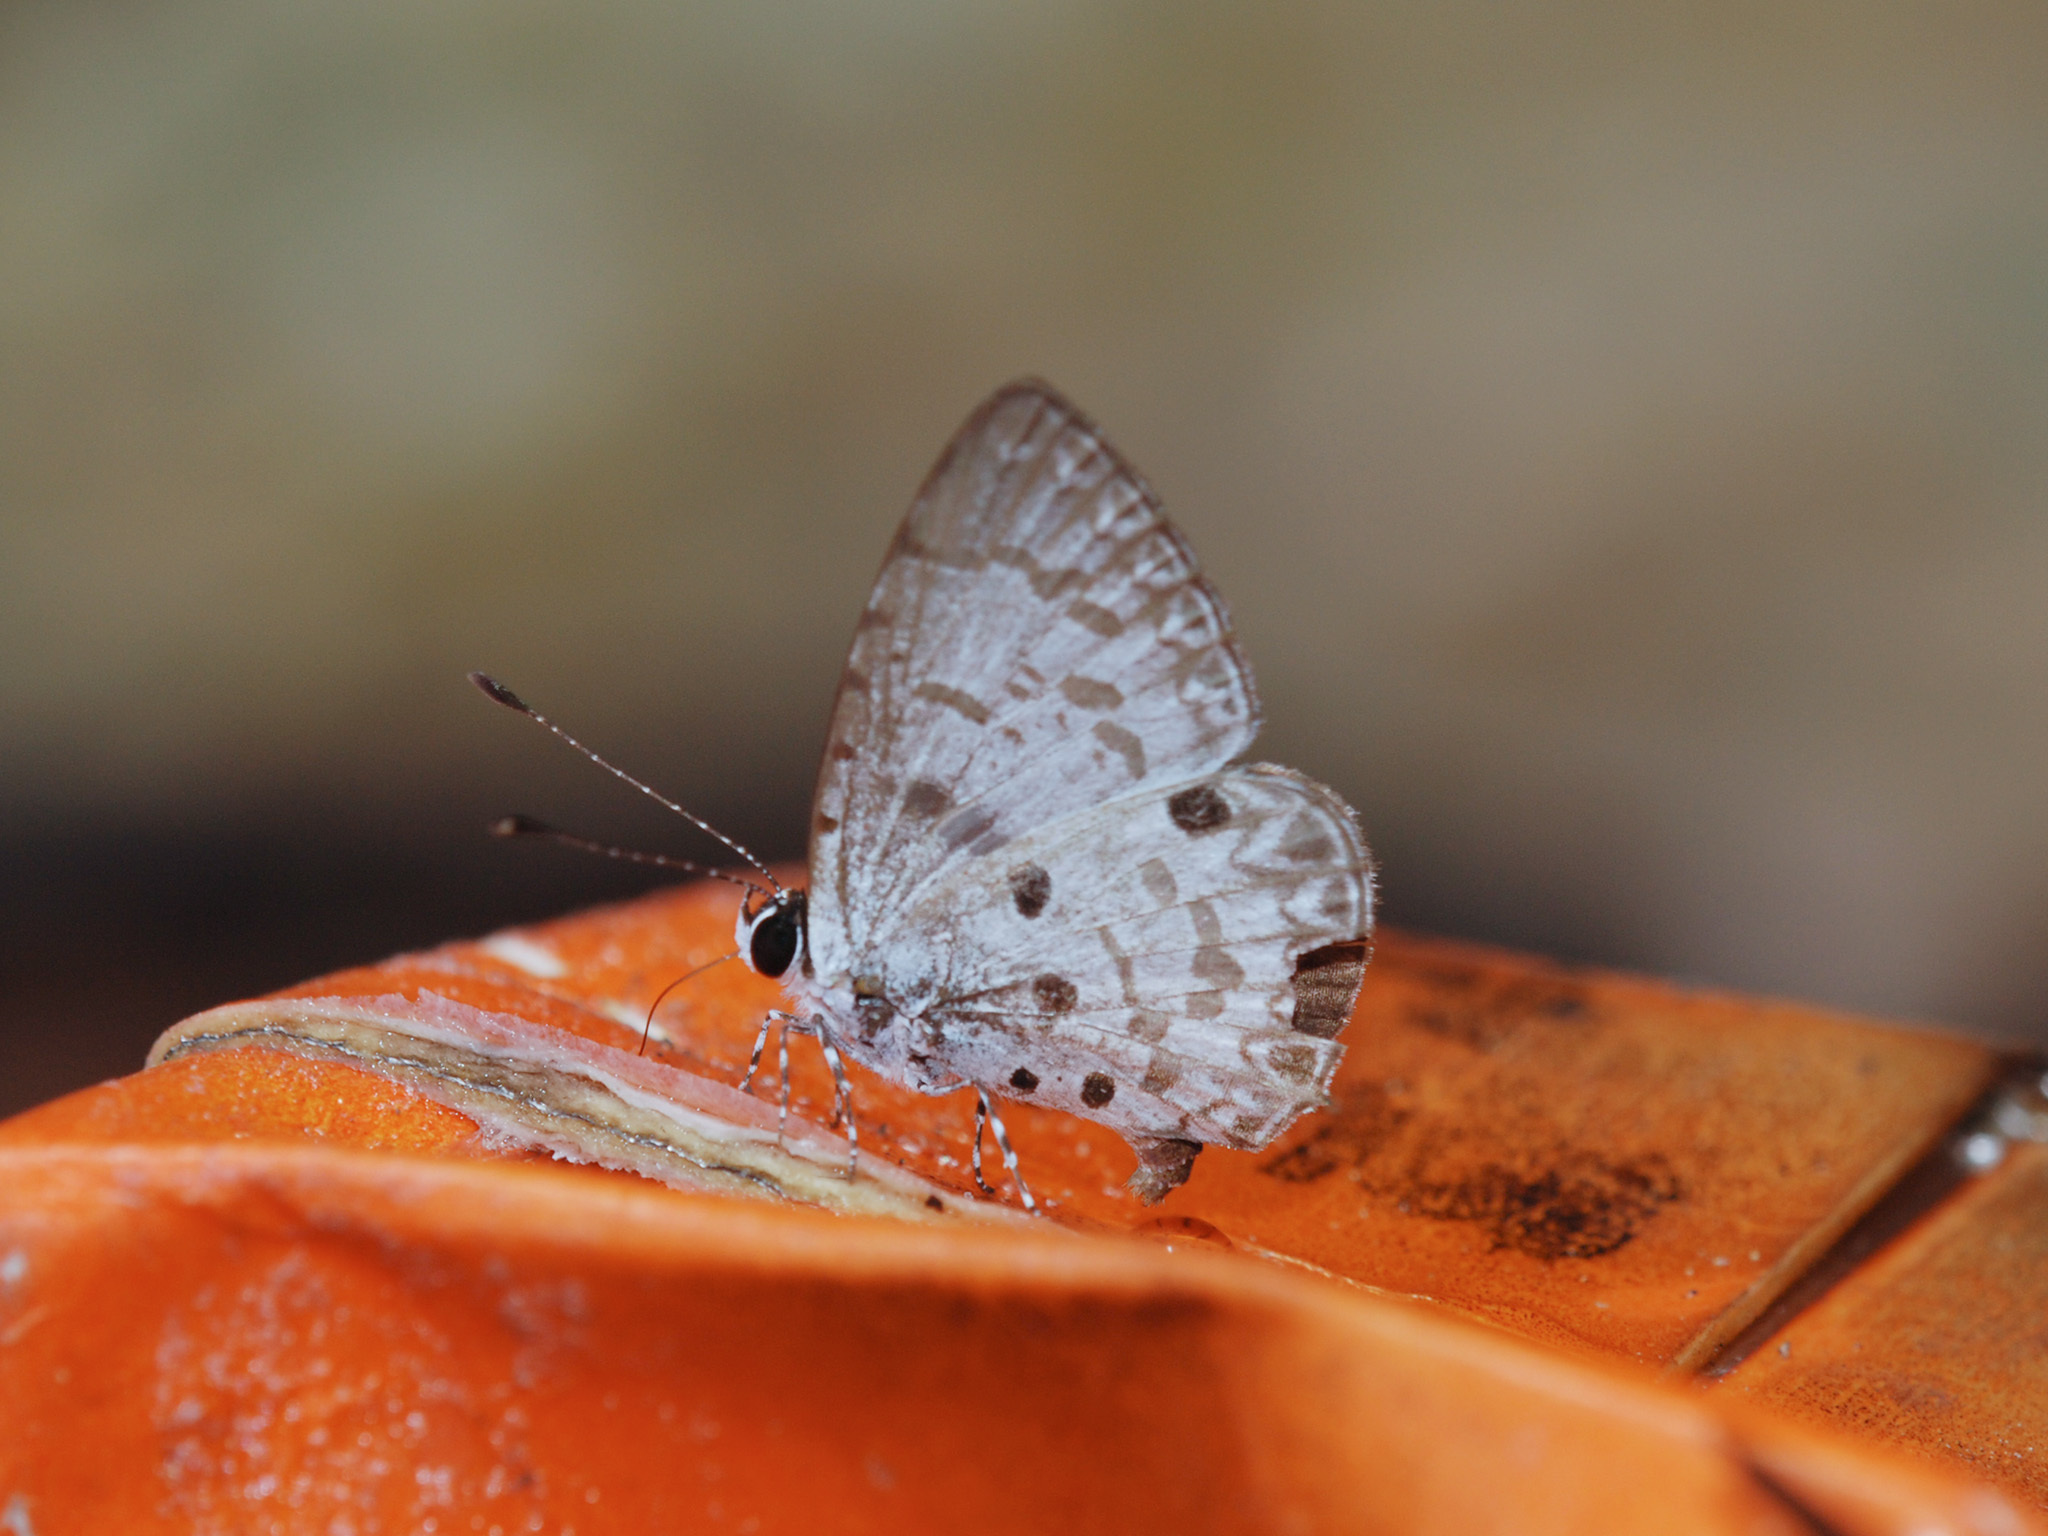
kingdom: Animalia
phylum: Arthropoda
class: Insecta
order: Lepidoptera
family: Lycaenidae
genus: Megisba
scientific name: Megisba malaya
